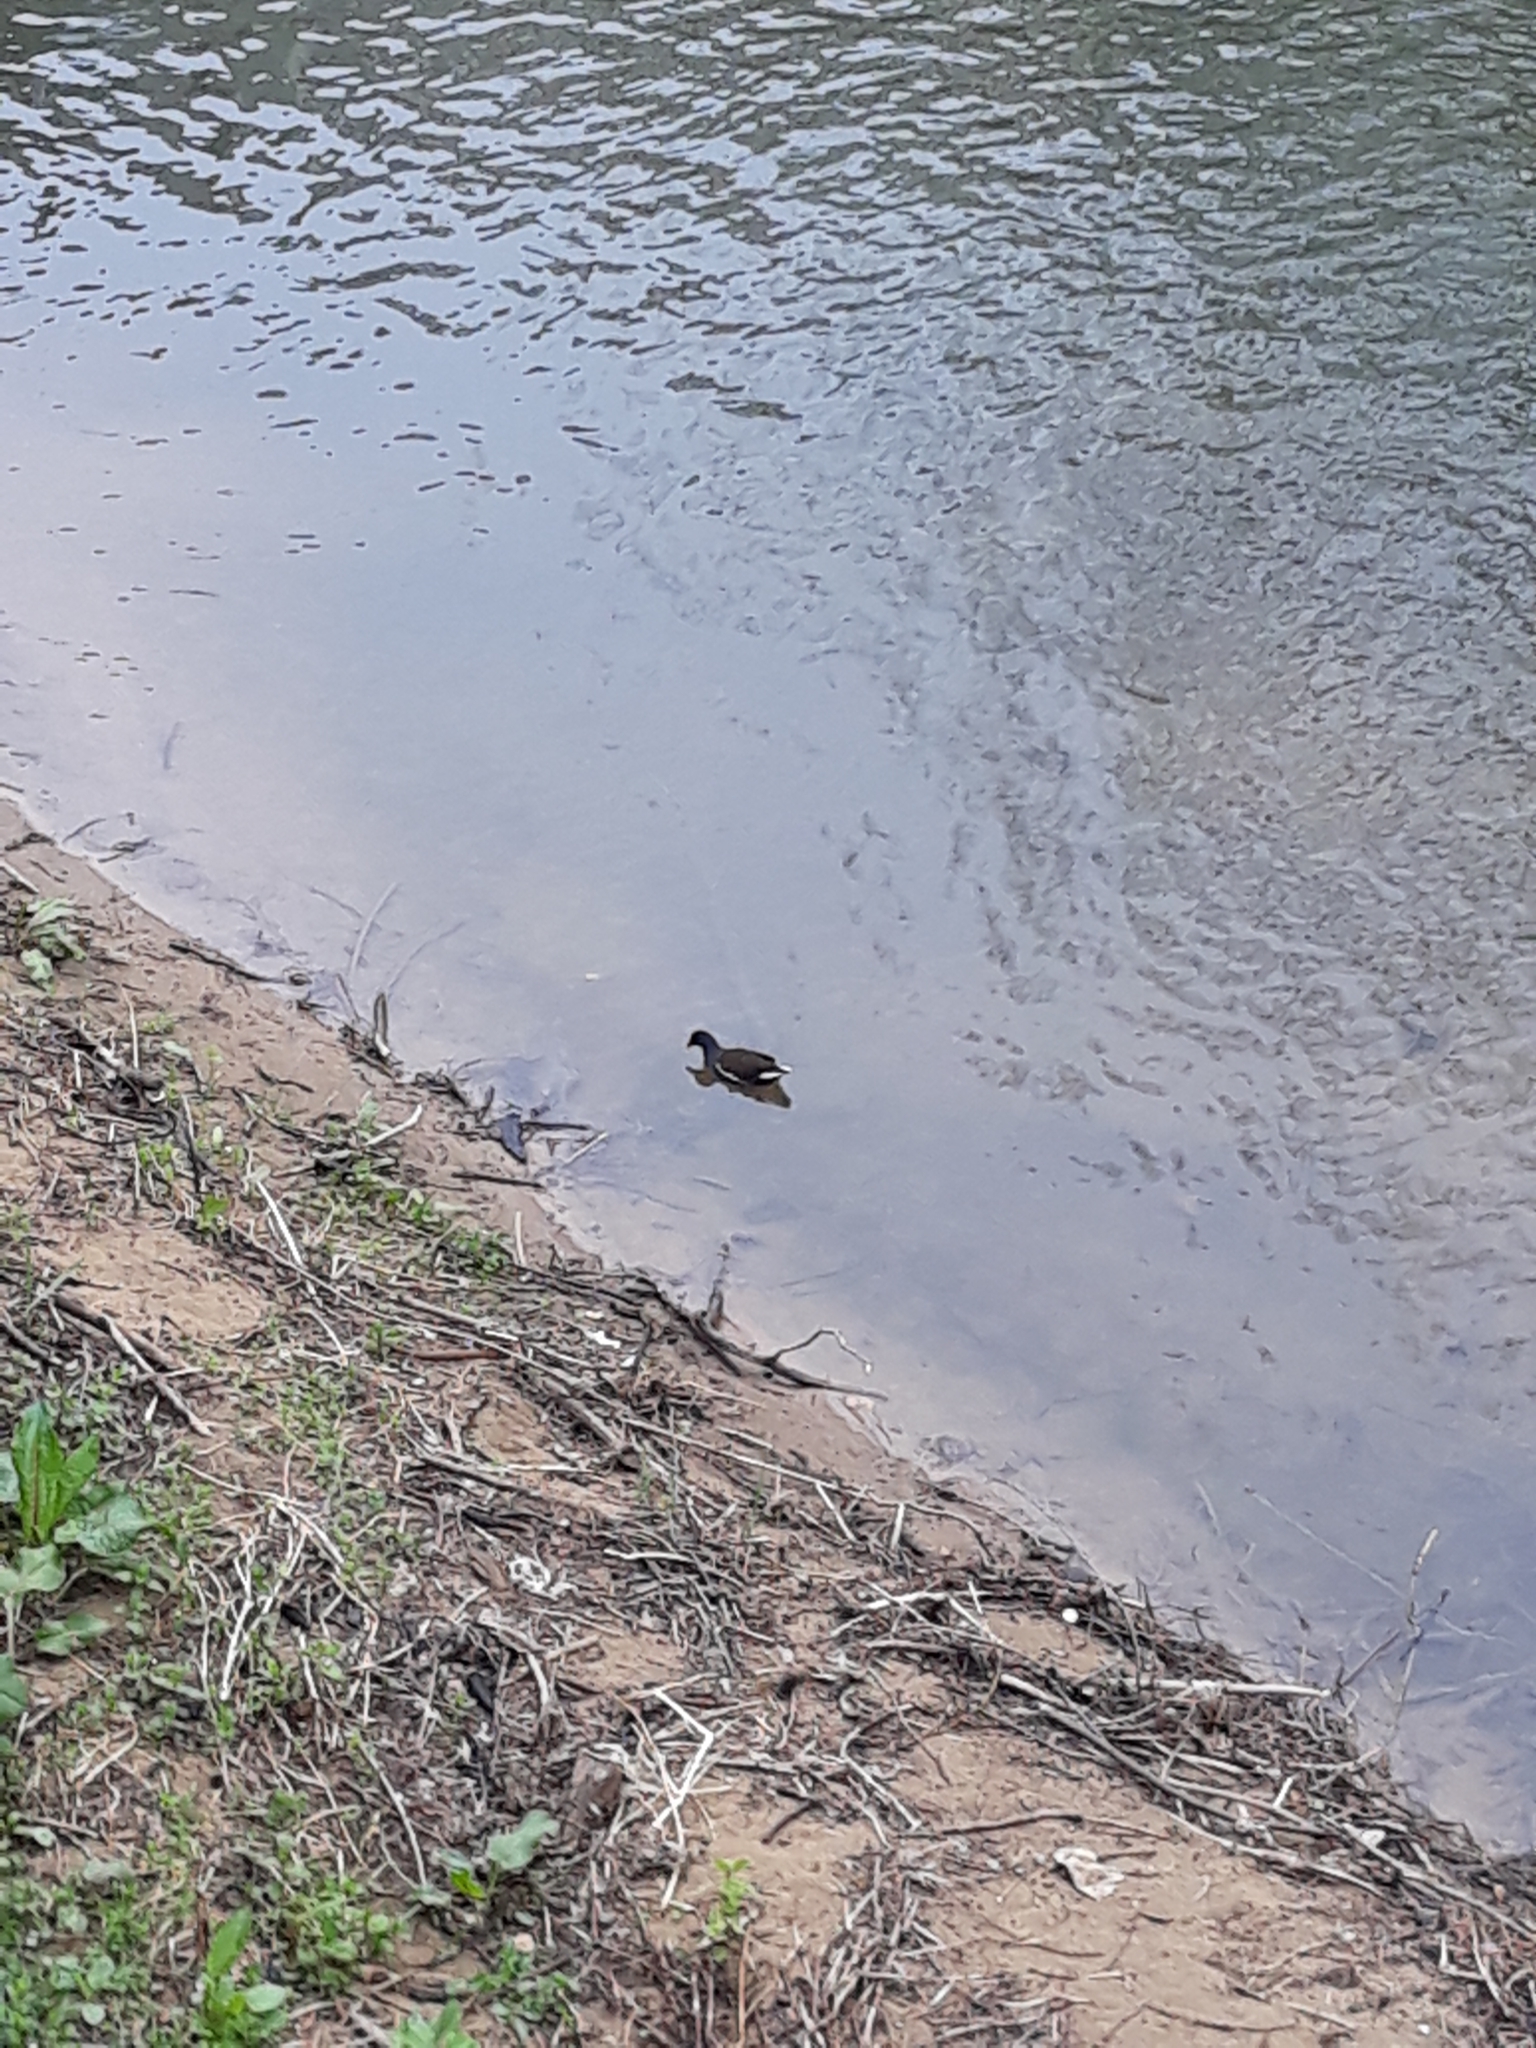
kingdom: Animalia
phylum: Chordata
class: Aves
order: Gruiformes
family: Rallidae
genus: Gallinula
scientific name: Gallinula chloropus
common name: Common moorhen
